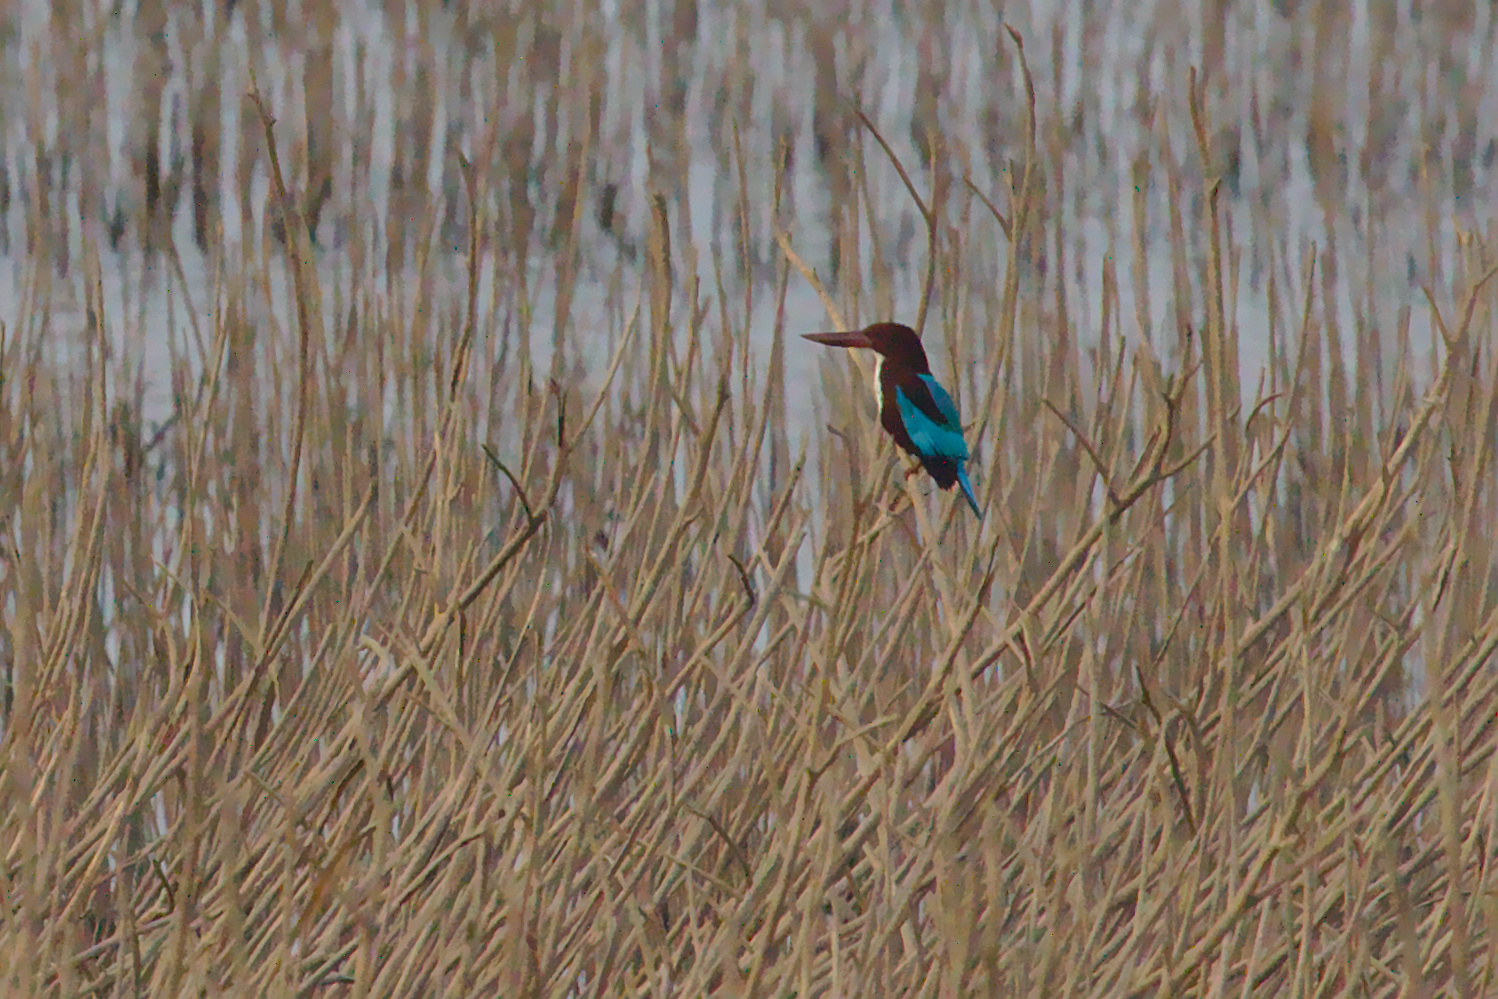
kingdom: Animalia
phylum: Chordata
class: Aves
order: Coraciiformes
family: Alcedinidae
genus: Halcyon
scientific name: Halcyon smyrnensis
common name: White-throated kingfisher
